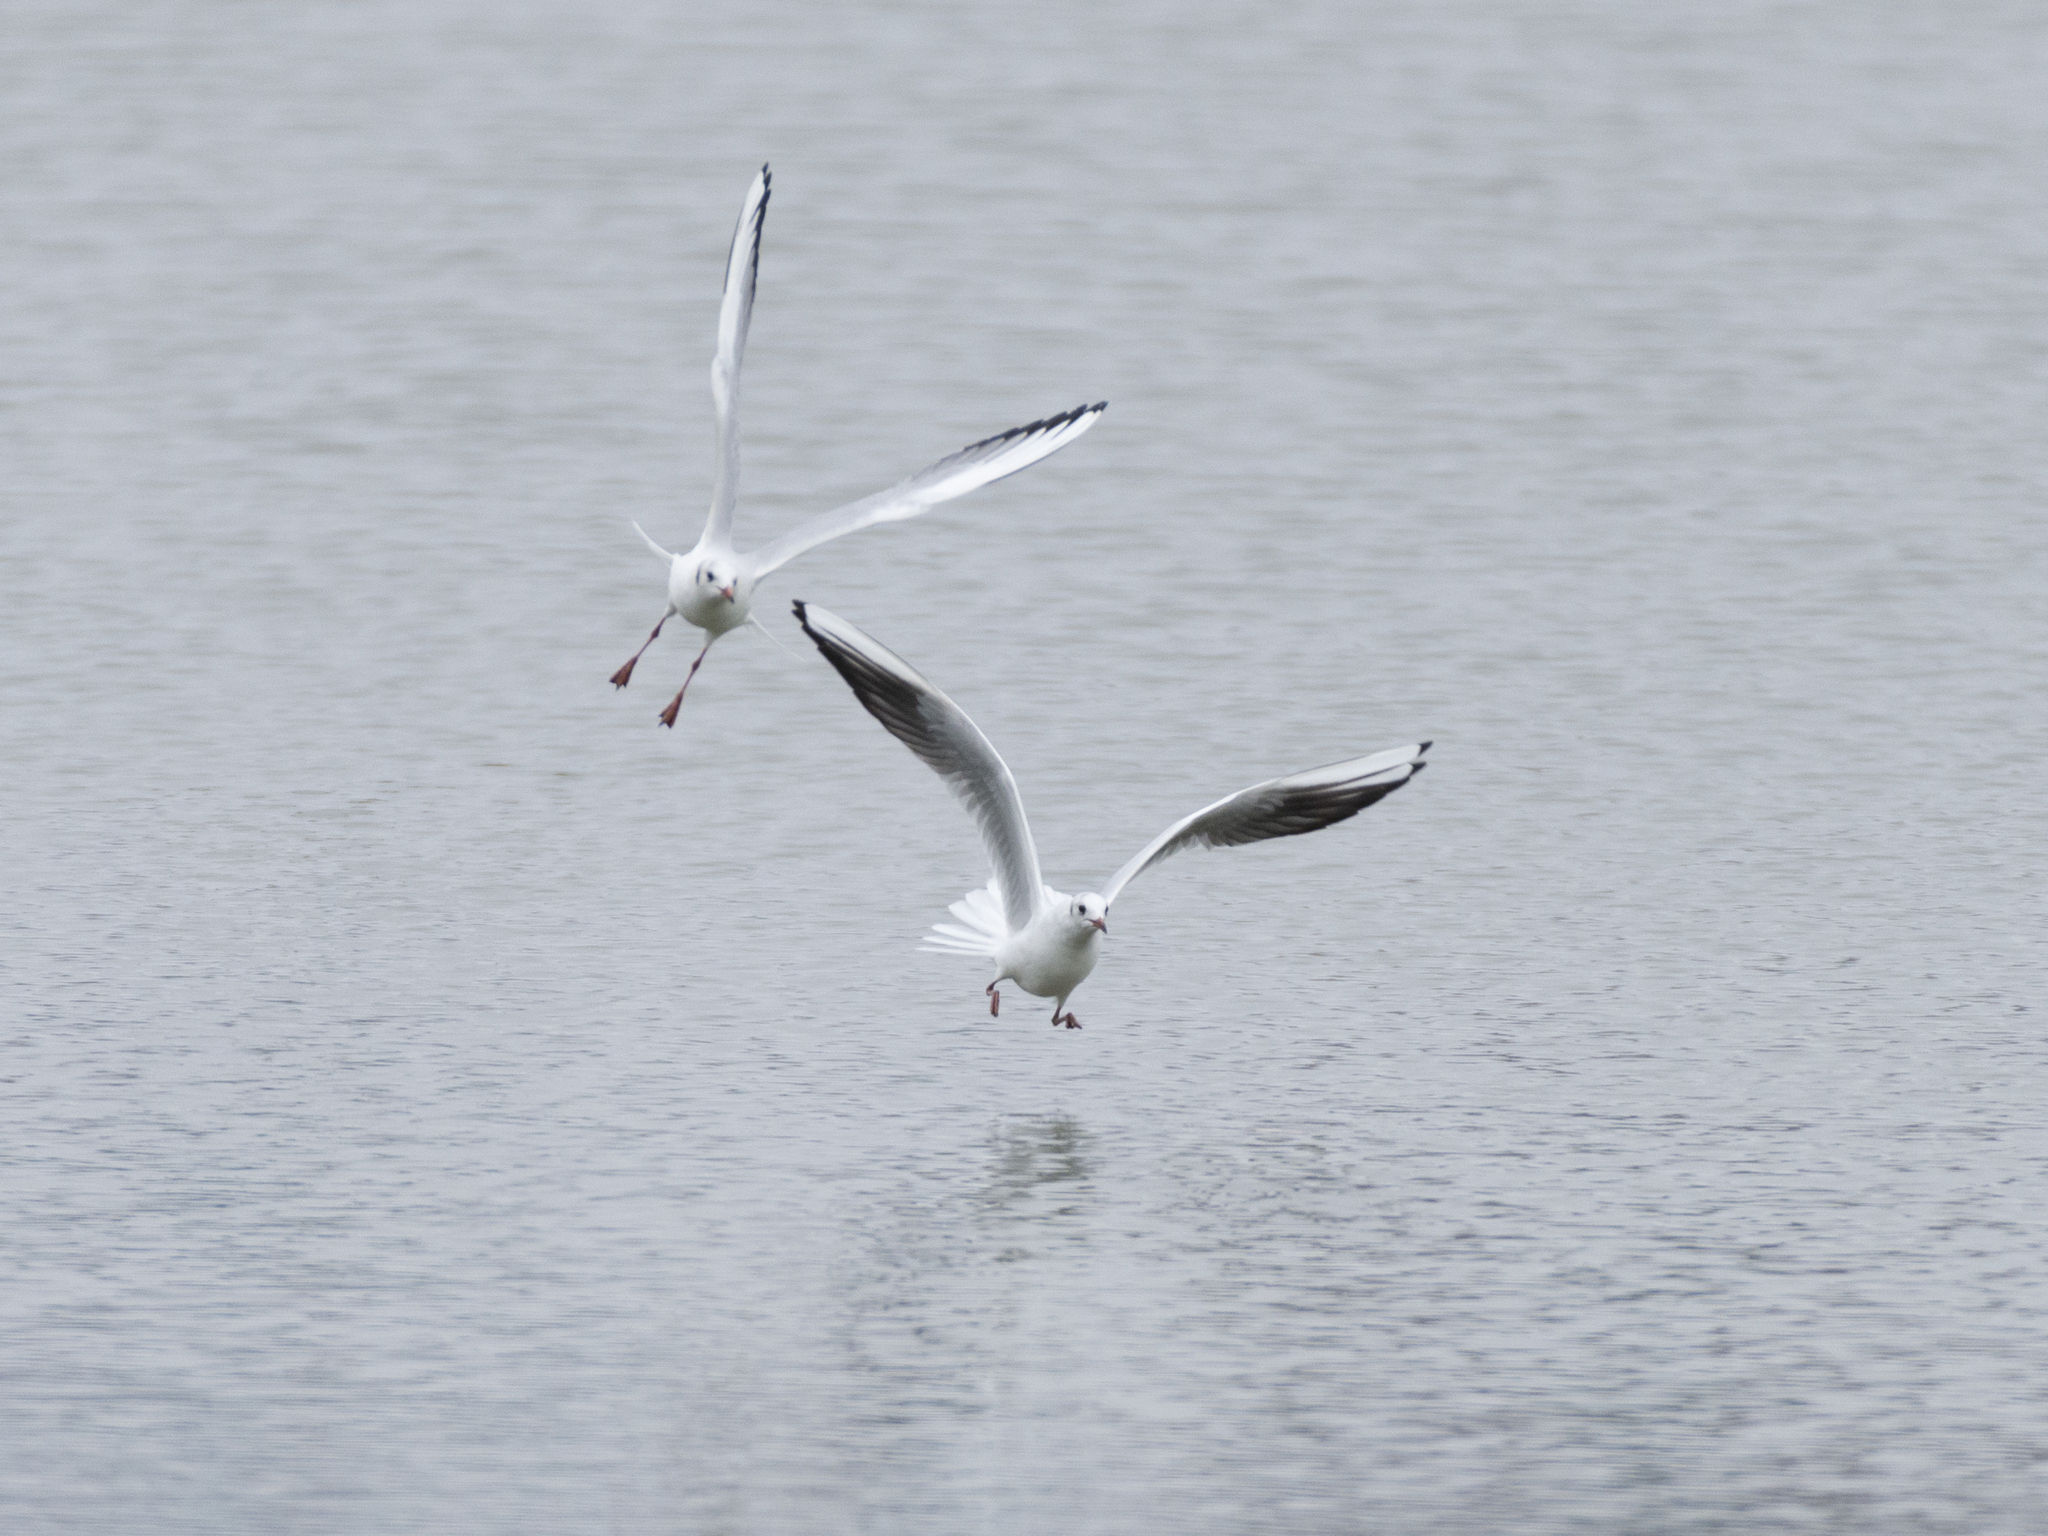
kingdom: Animalia
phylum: Chordata
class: Aves
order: Charadriiformes
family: Laridae
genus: Chroicocephalus
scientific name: Chroicocephalus ridibundus
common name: Black-headed gull
